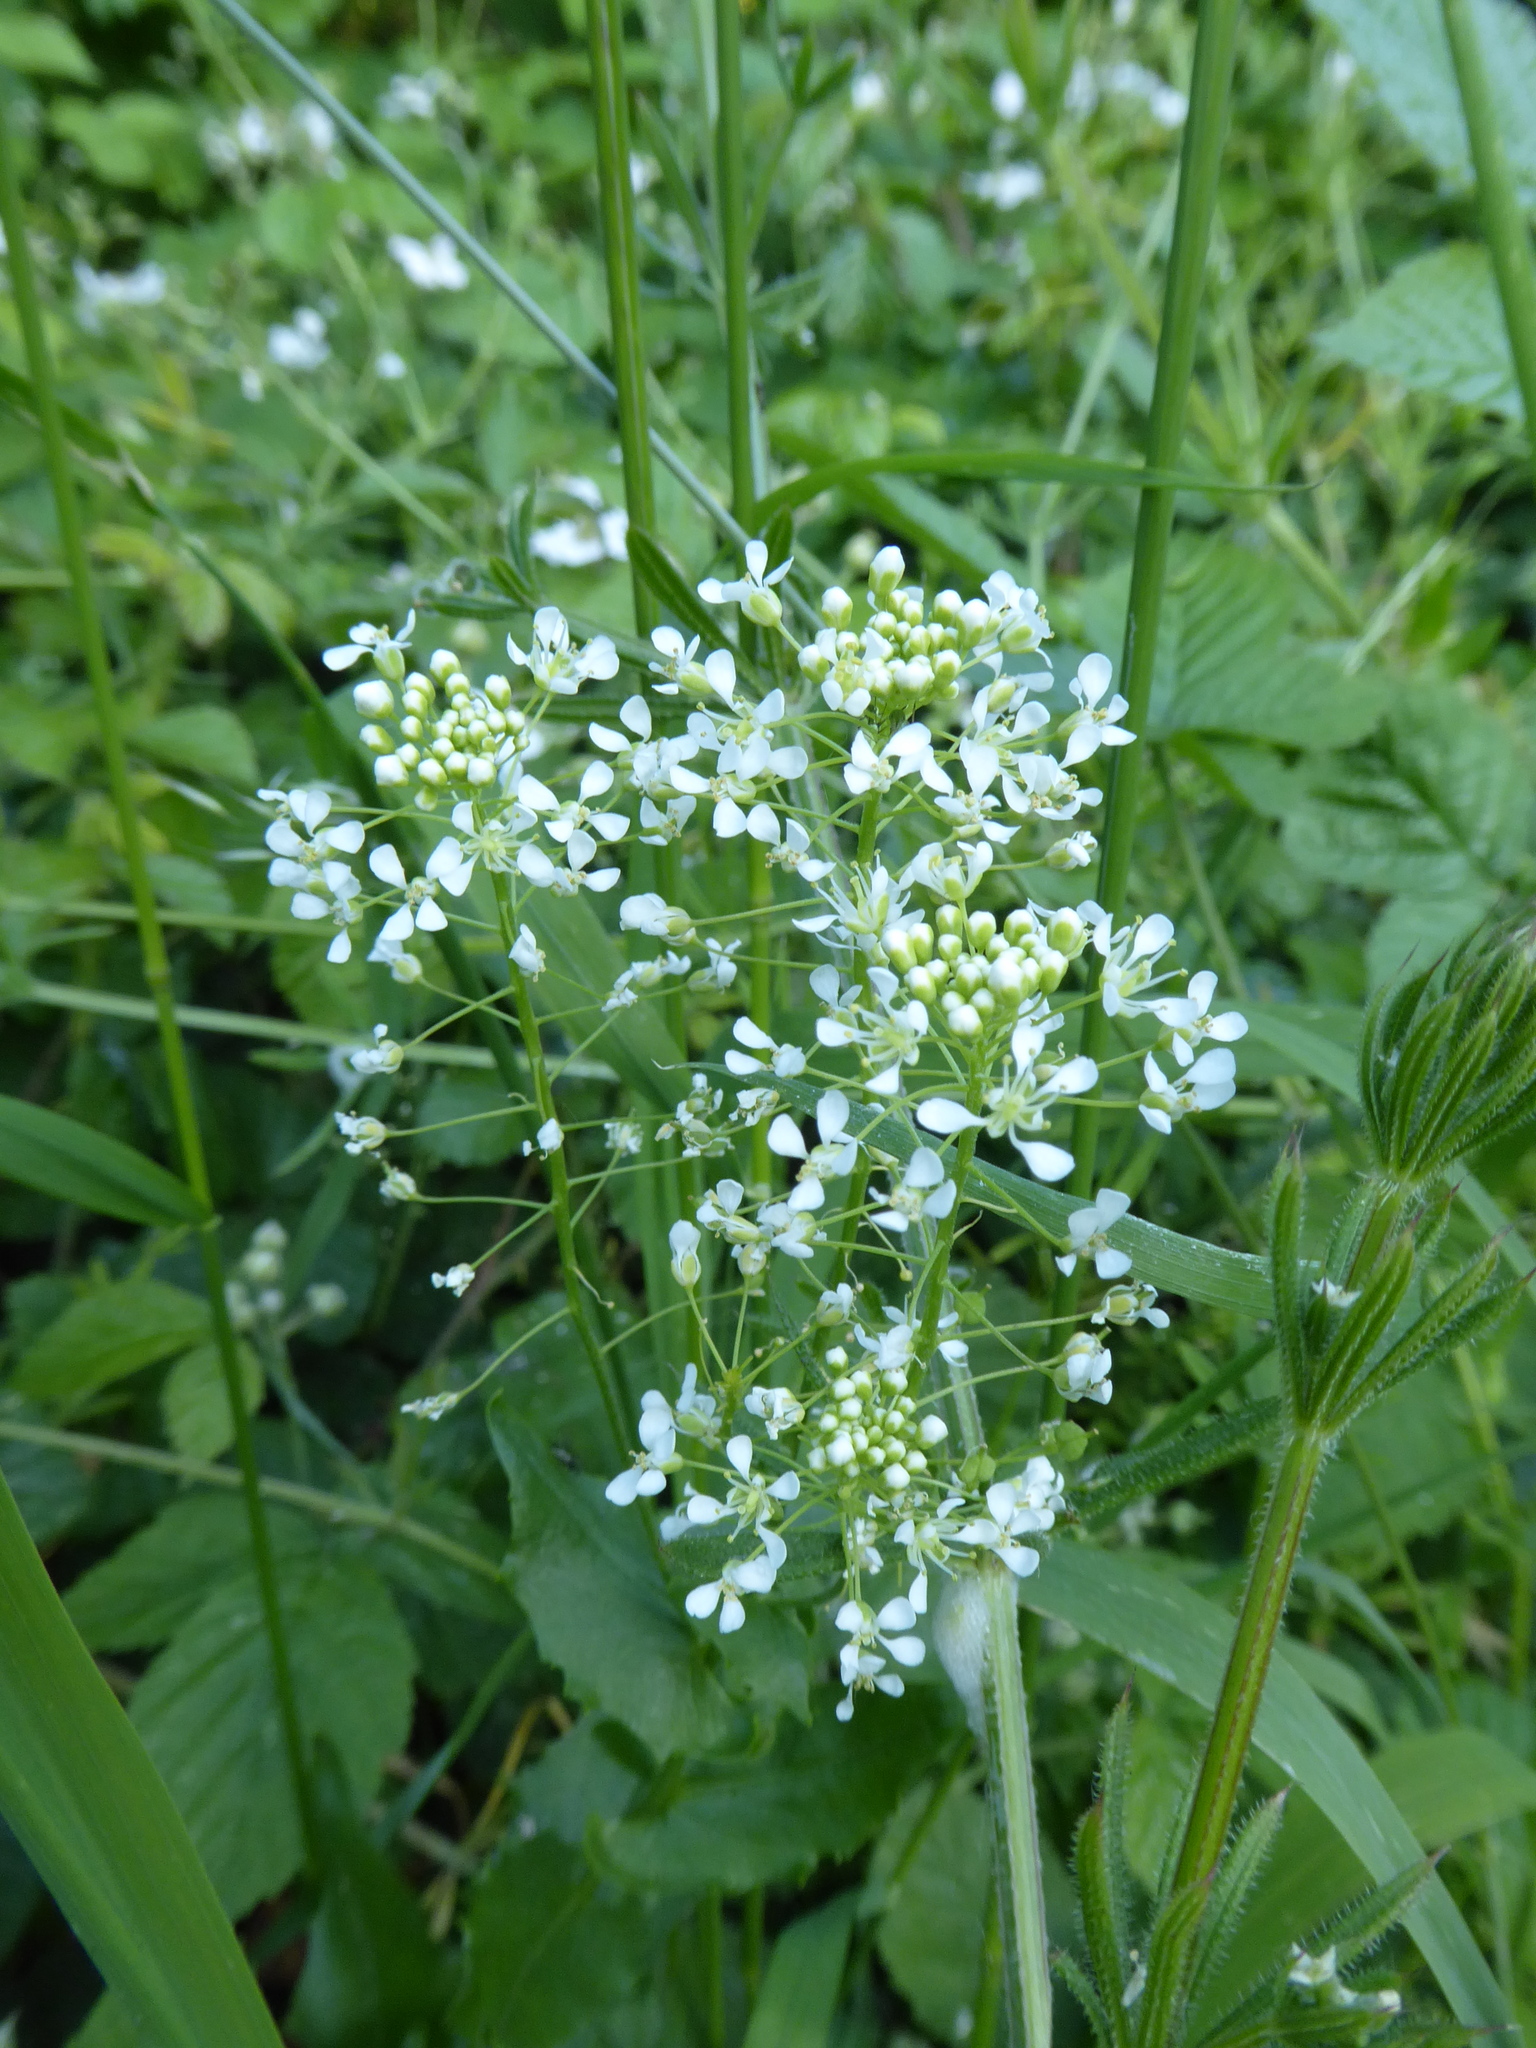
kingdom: Plantae
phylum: Tracheophyta
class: Magnoliopsida
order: Brassicales
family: Brassicaceae
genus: Lepidium
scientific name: Lepidium draba
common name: Hoary cress
